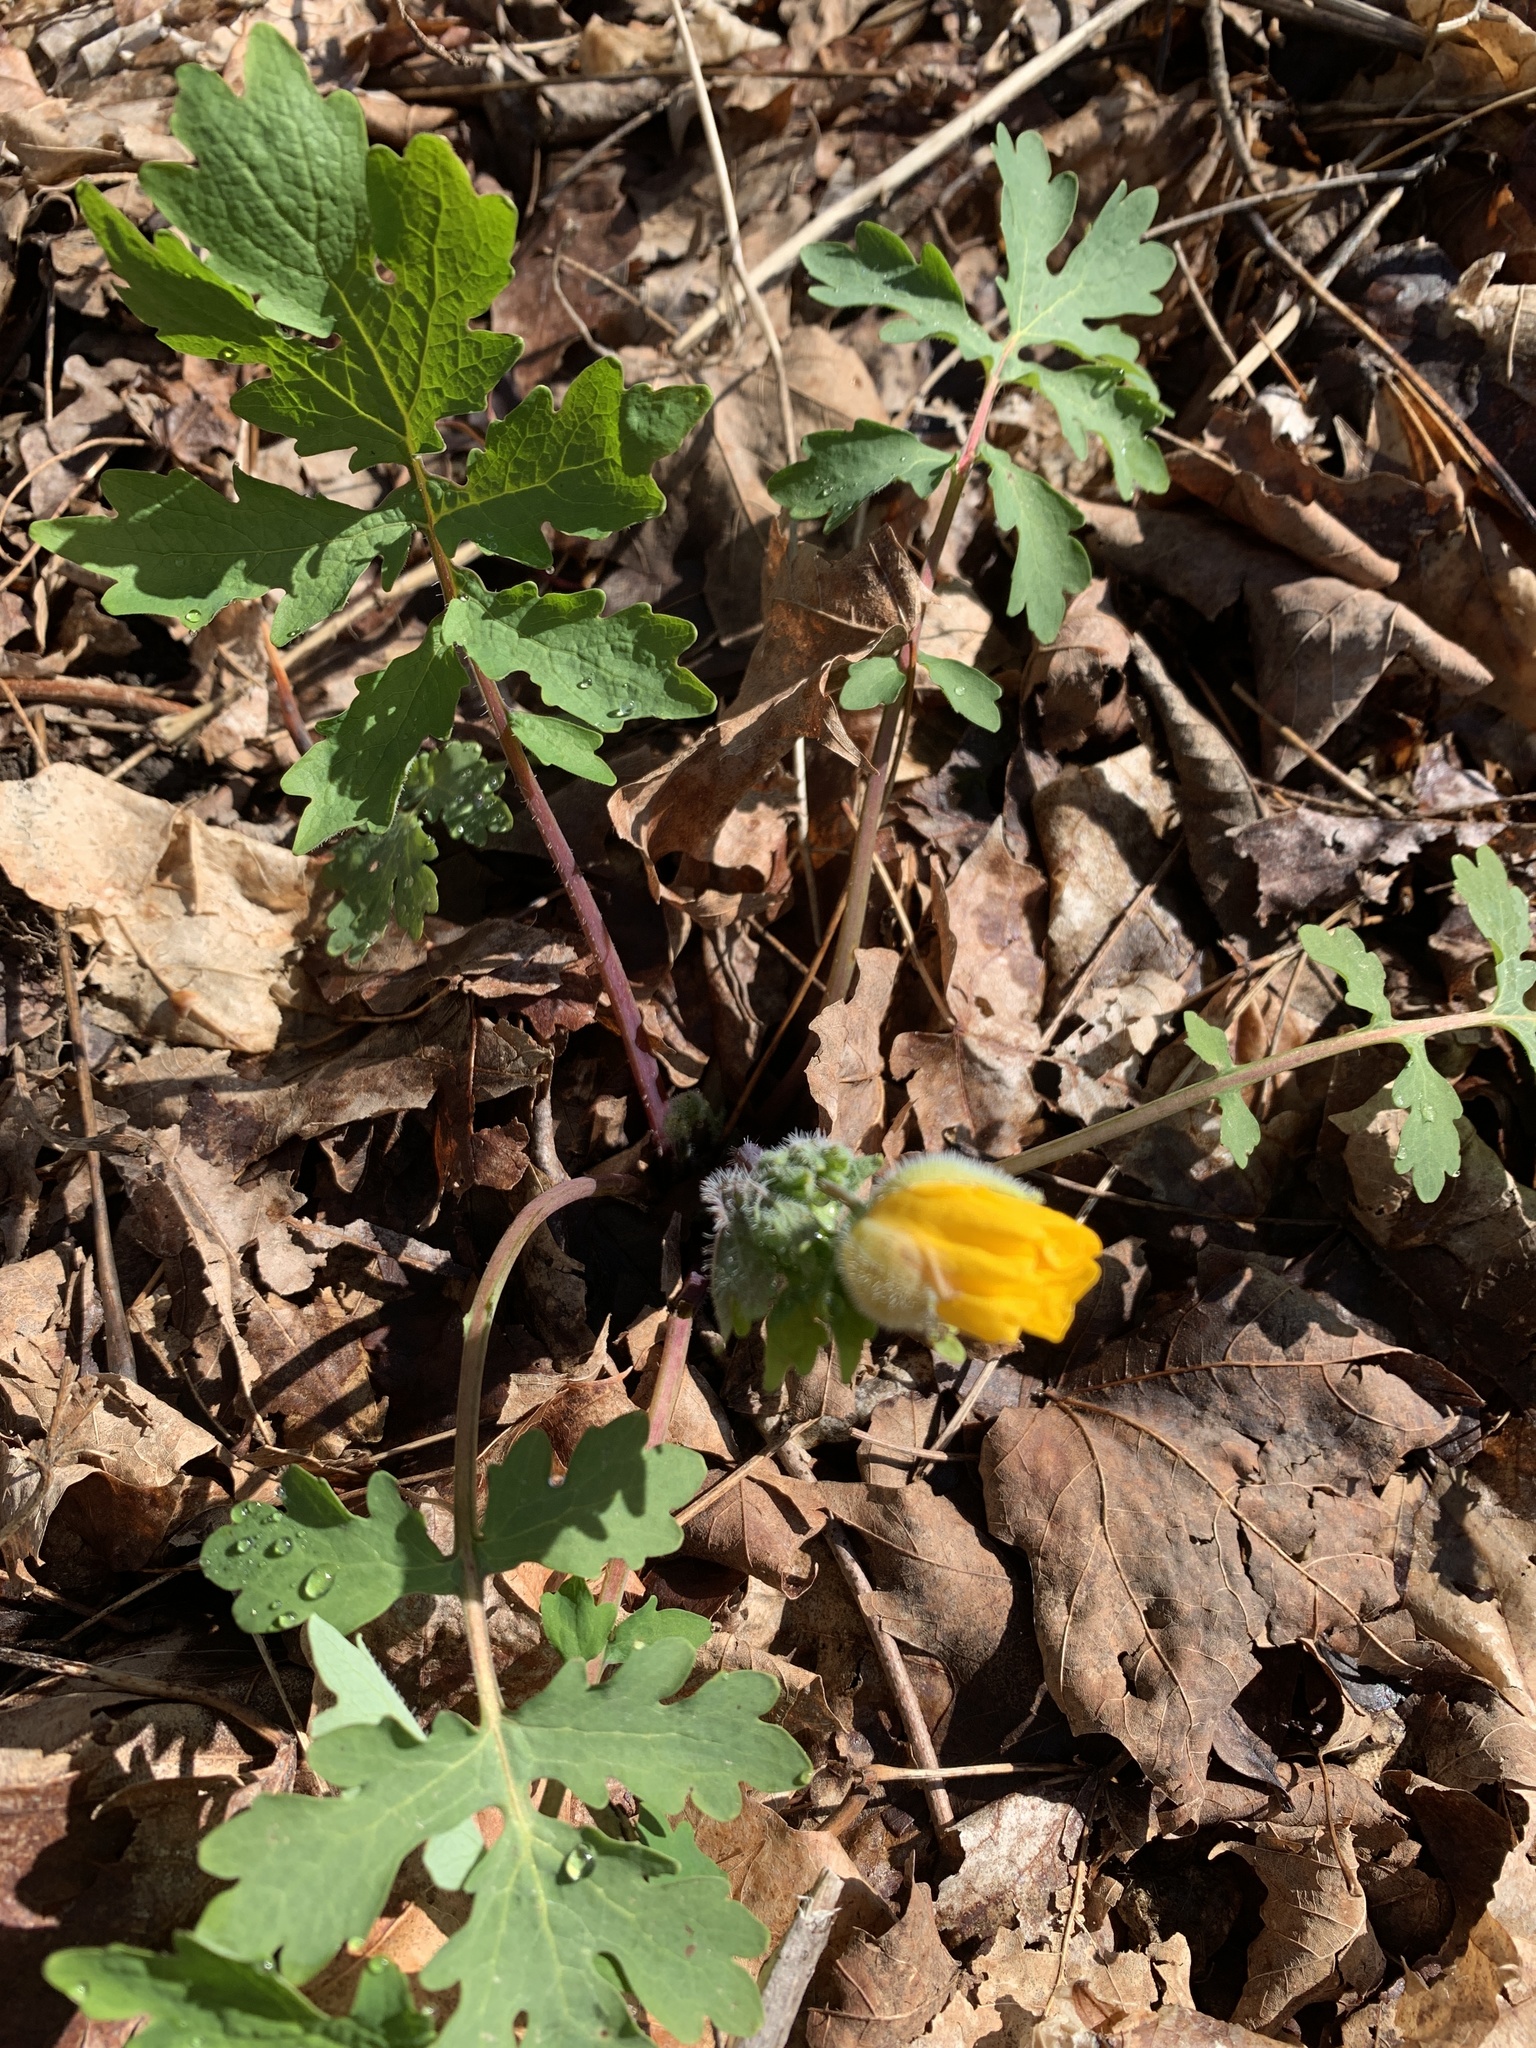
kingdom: Plantae
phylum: Tracheophyta
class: Magnoliopsida
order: Ranunculales
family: Papaveraceae
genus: Stylophorum
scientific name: Stylophorum diphyllum
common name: Celandine poppy
